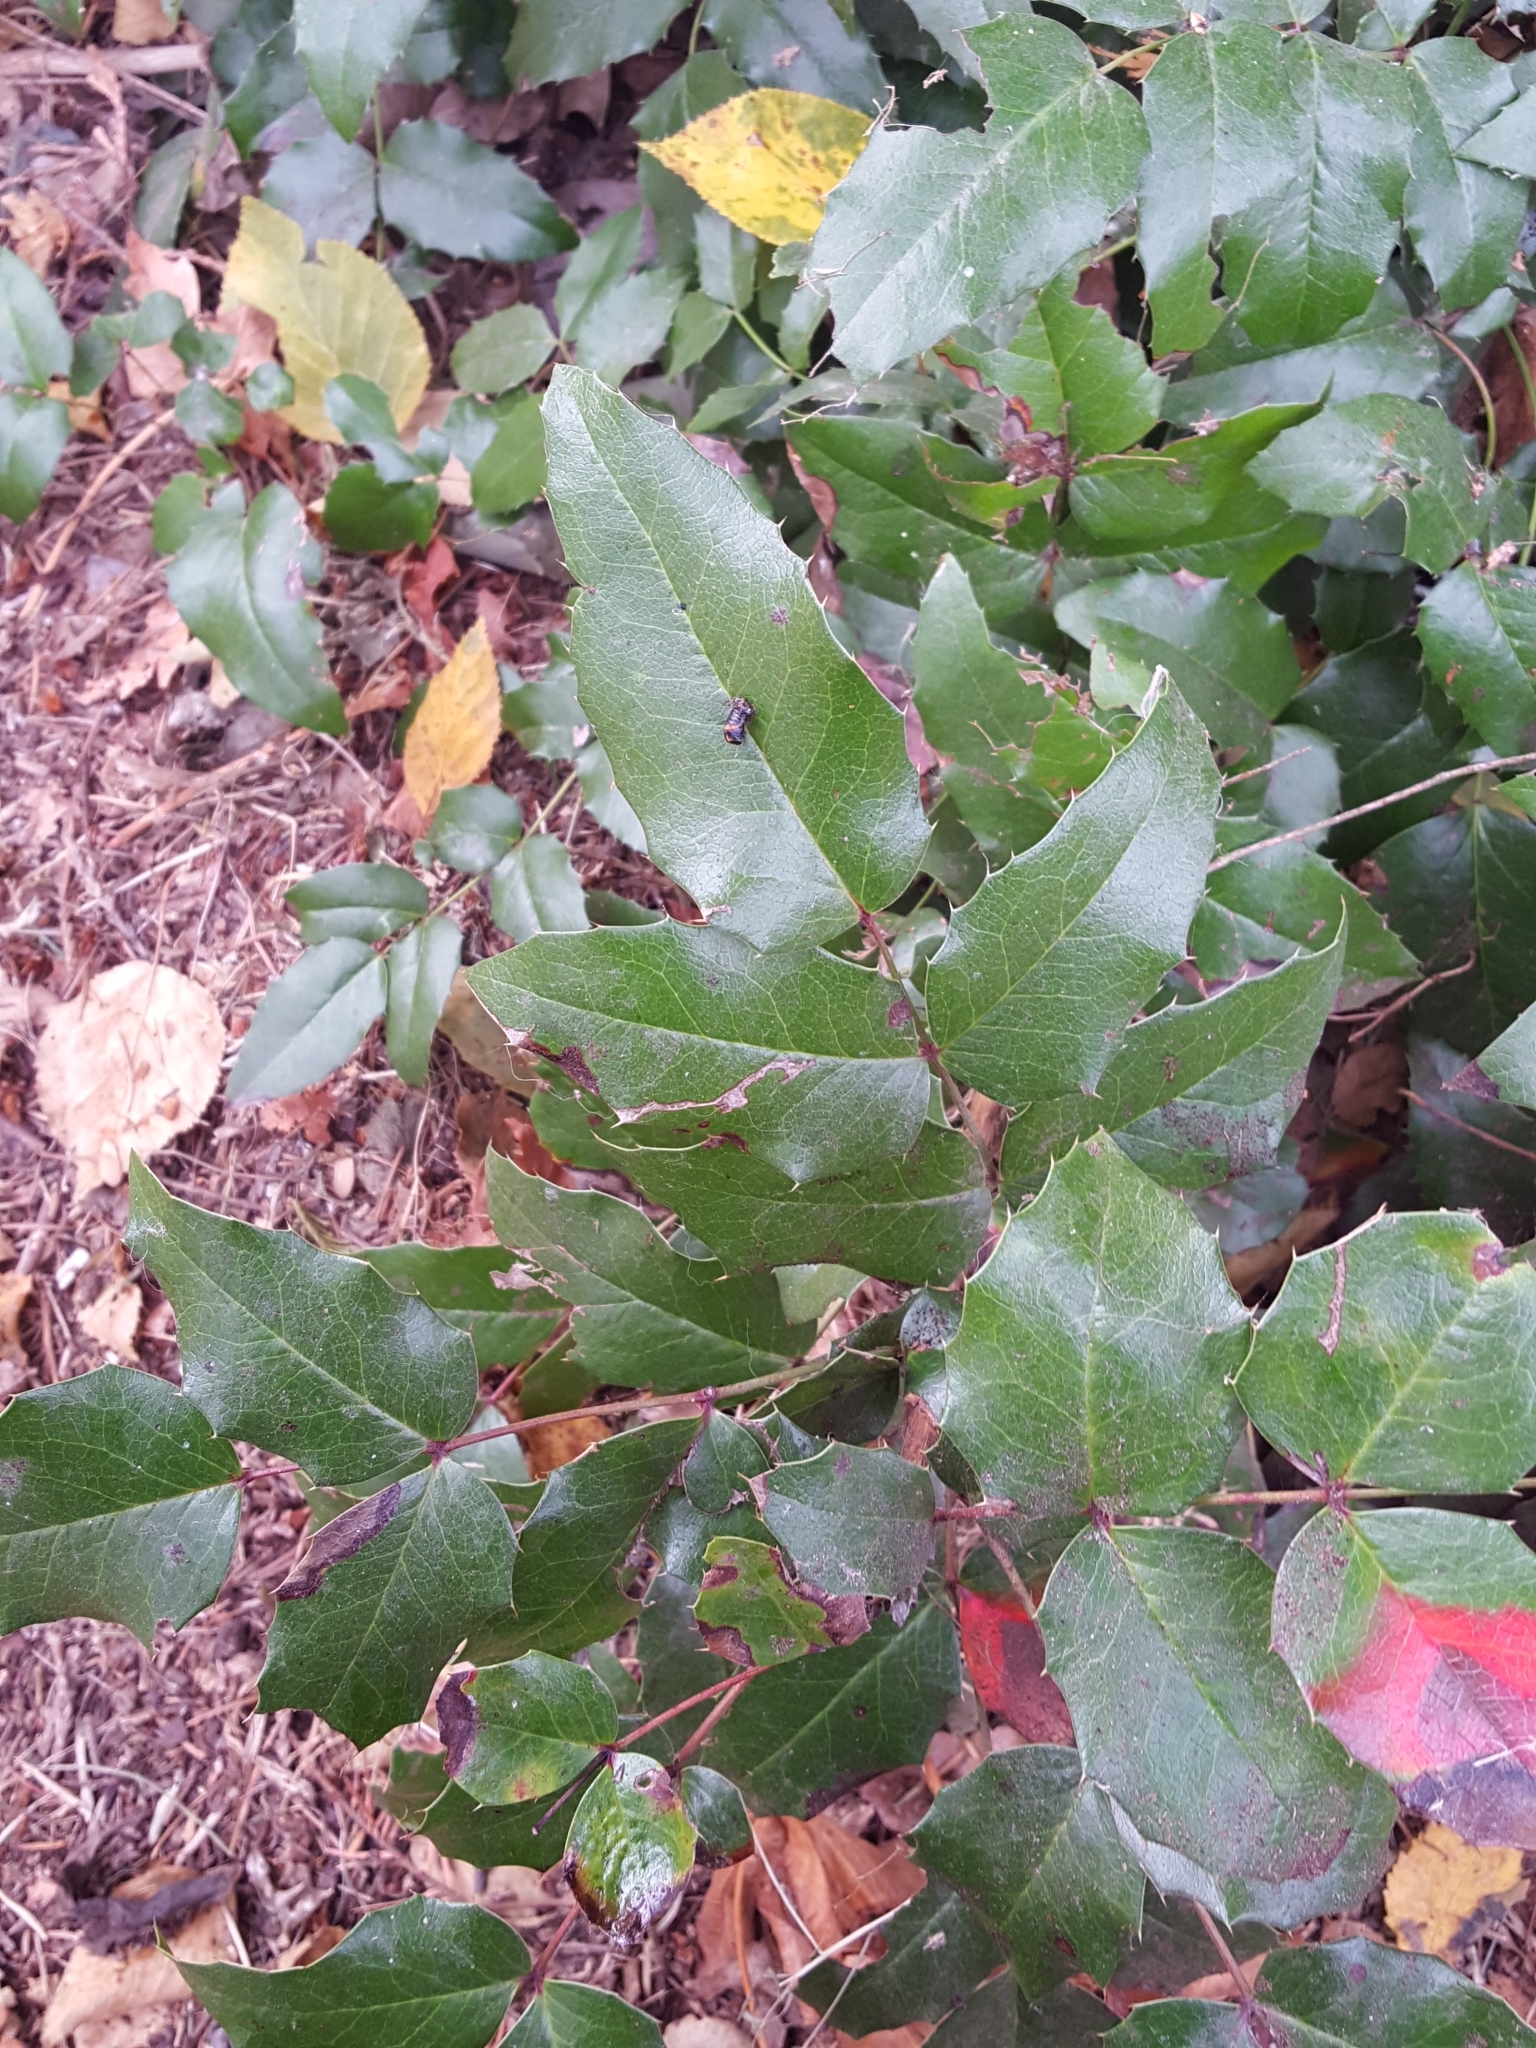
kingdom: Plantae
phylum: Tracheophyta
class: Magnoliopsida
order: Ranunculales
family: Berberidaceae
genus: Mahonia
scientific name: Mahonia aquifolium
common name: Oregon-grape
